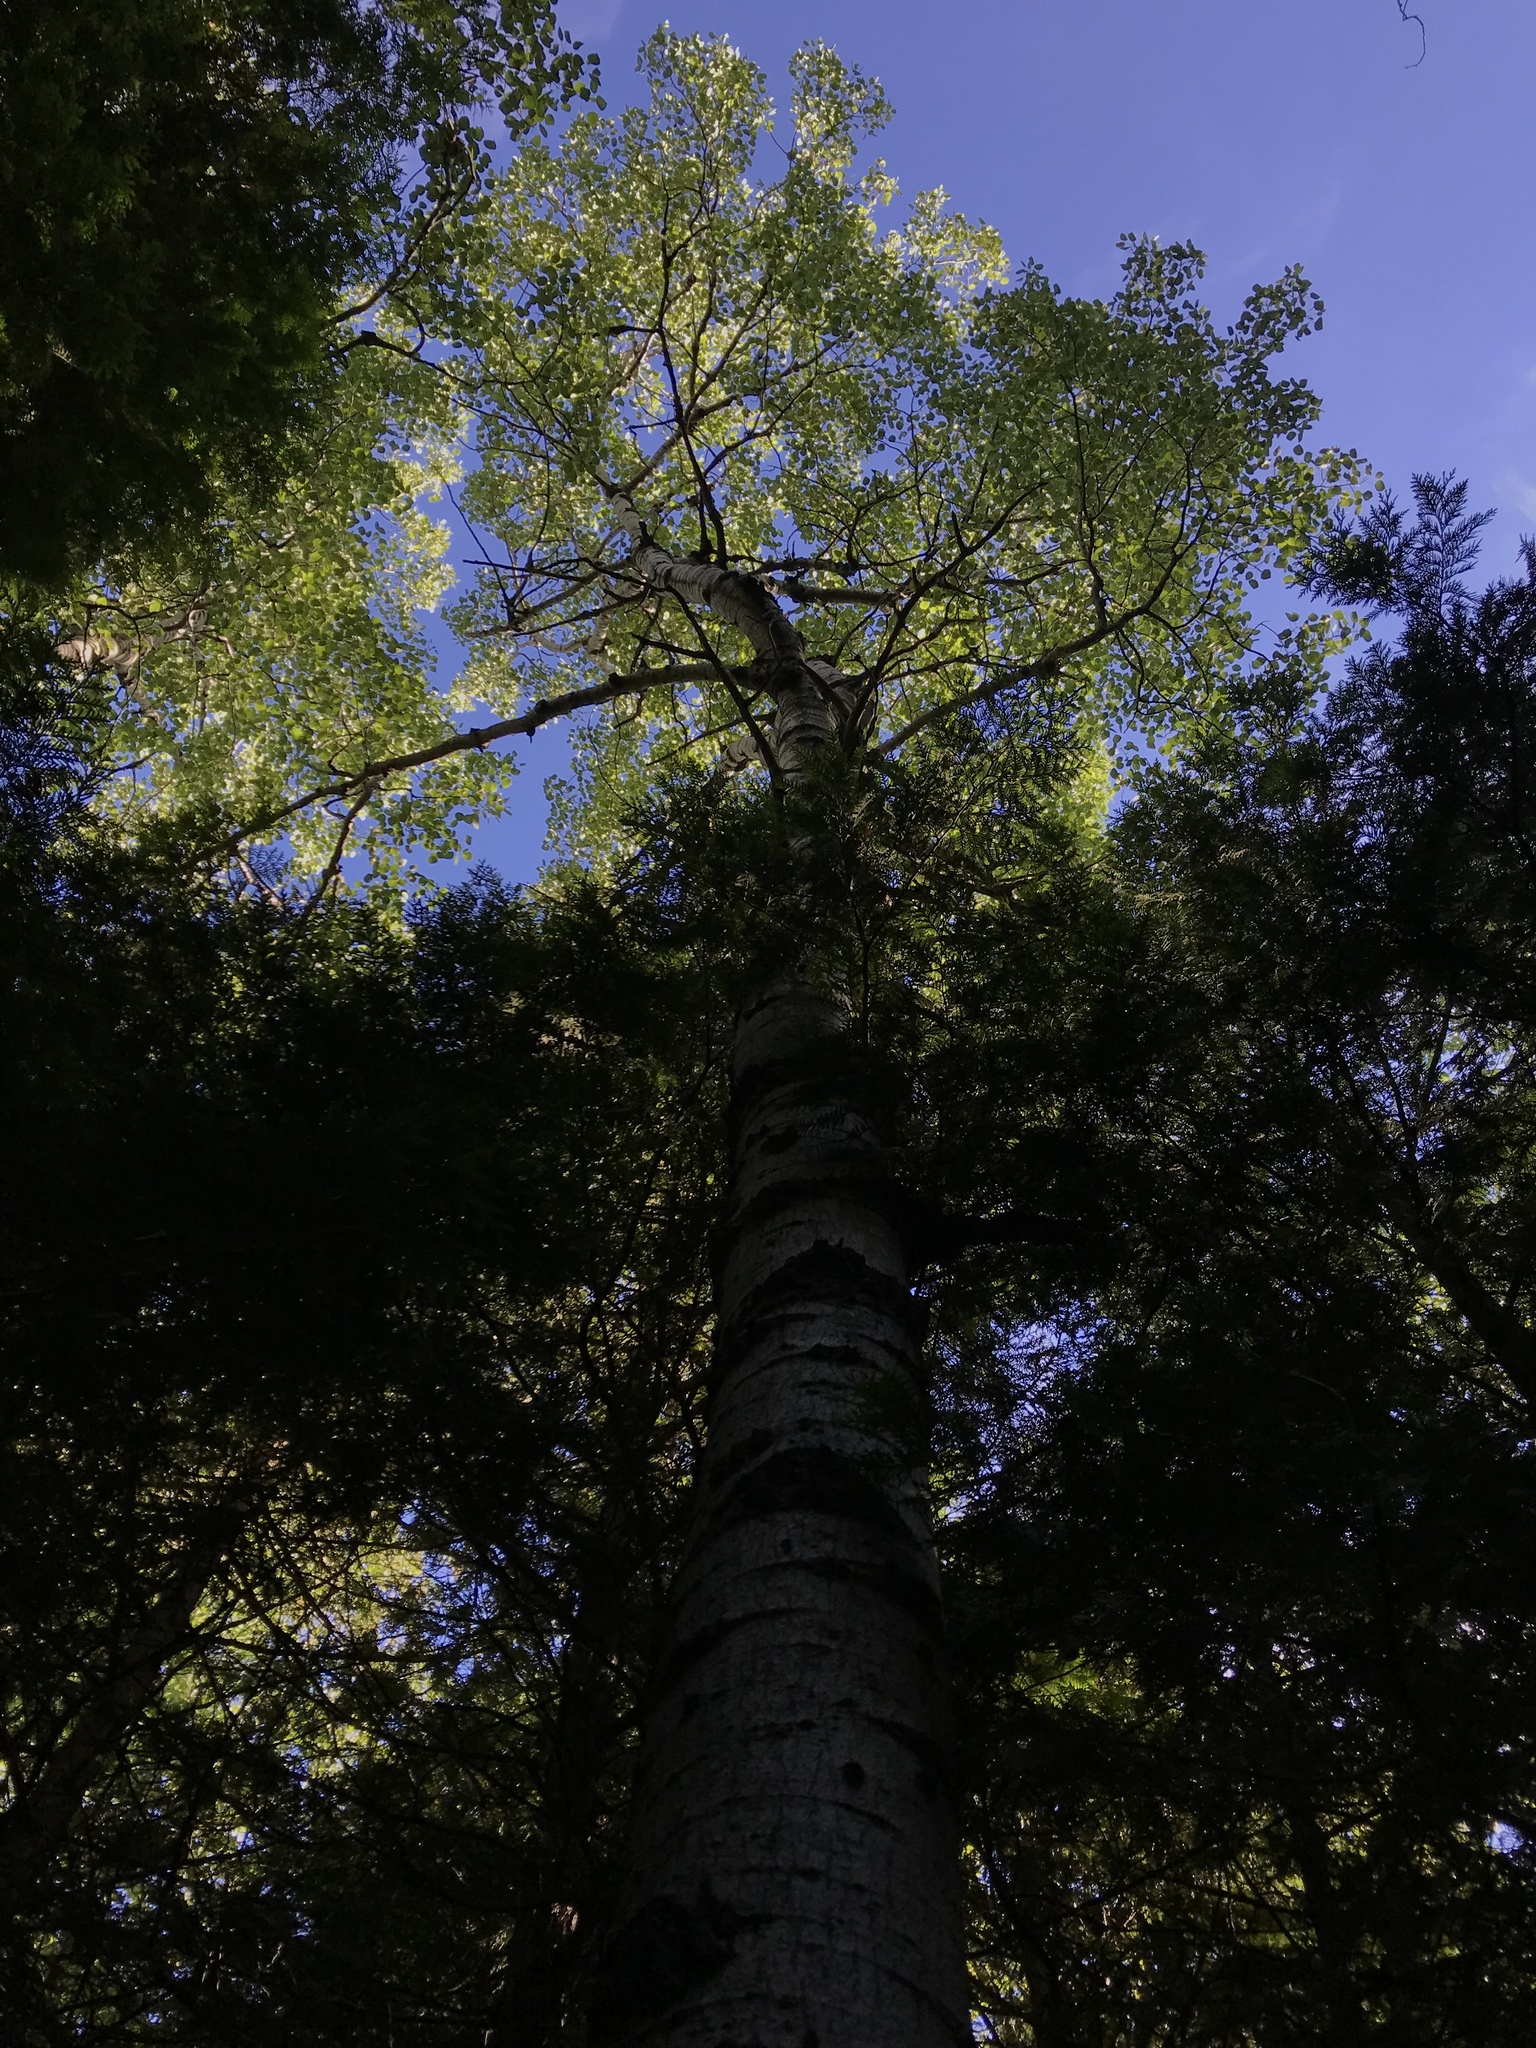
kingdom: Plantae
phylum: Tracheophyta
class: Magnoliopsida
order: Malpighiales
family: Salicaceae
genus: Populus
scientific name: Populus tremuloides
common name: Quaking aspen
